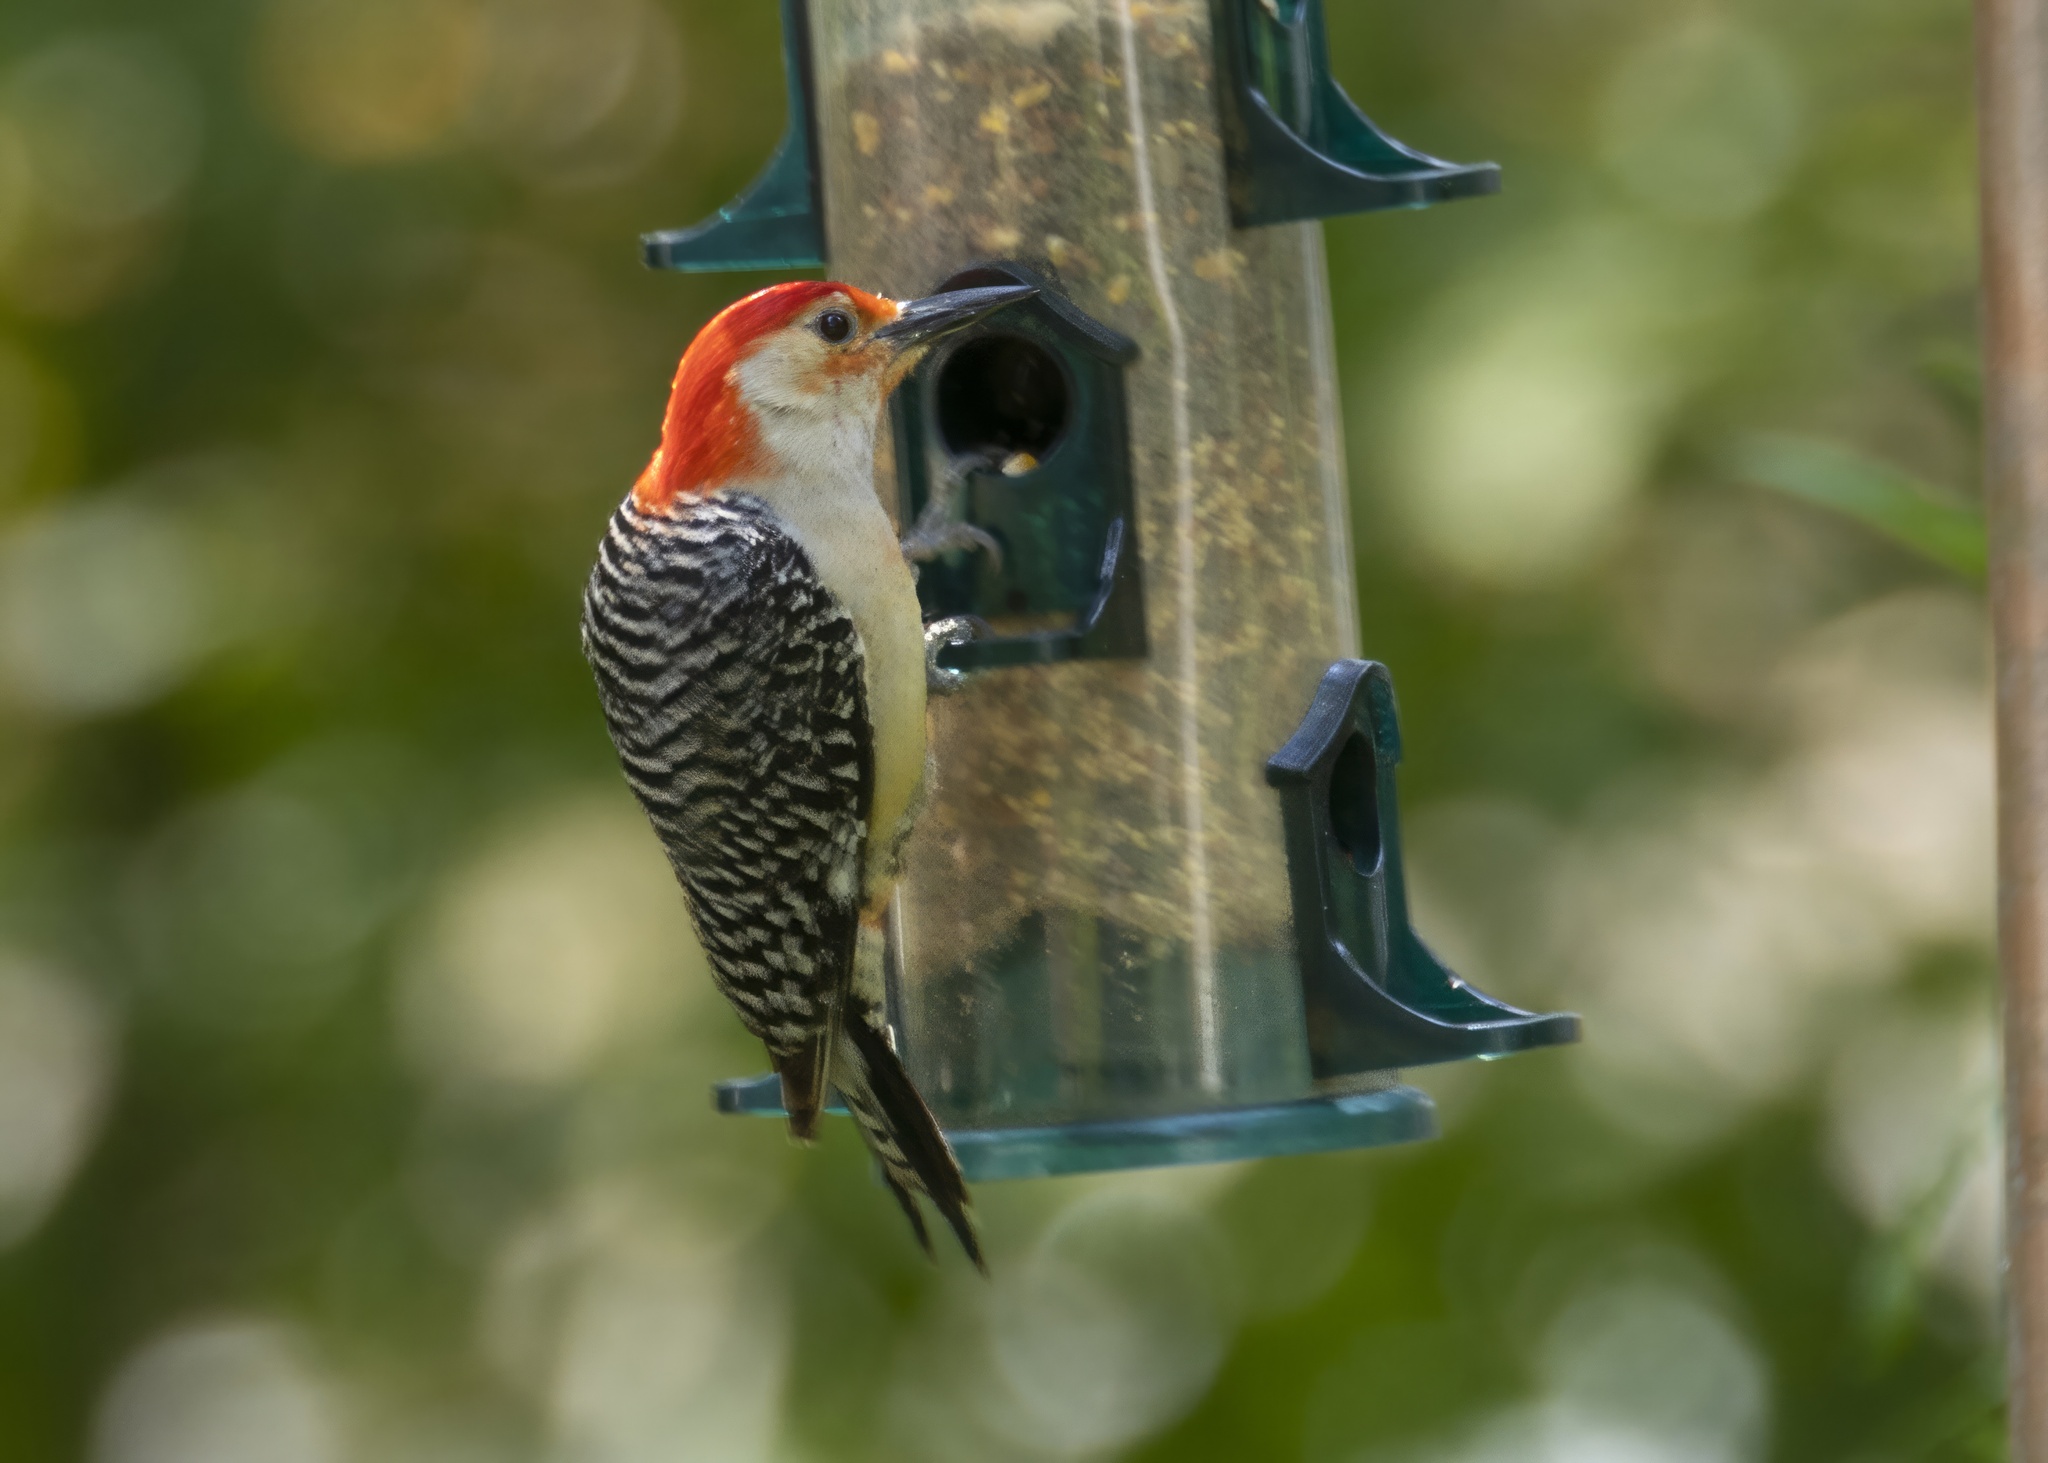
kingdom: Animalia
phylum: Chordata
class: Aves
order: Piciformes
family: Picidae
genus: Melanerpes
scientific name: Melanerpes carolinus
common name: Red-bellied woodpecker
